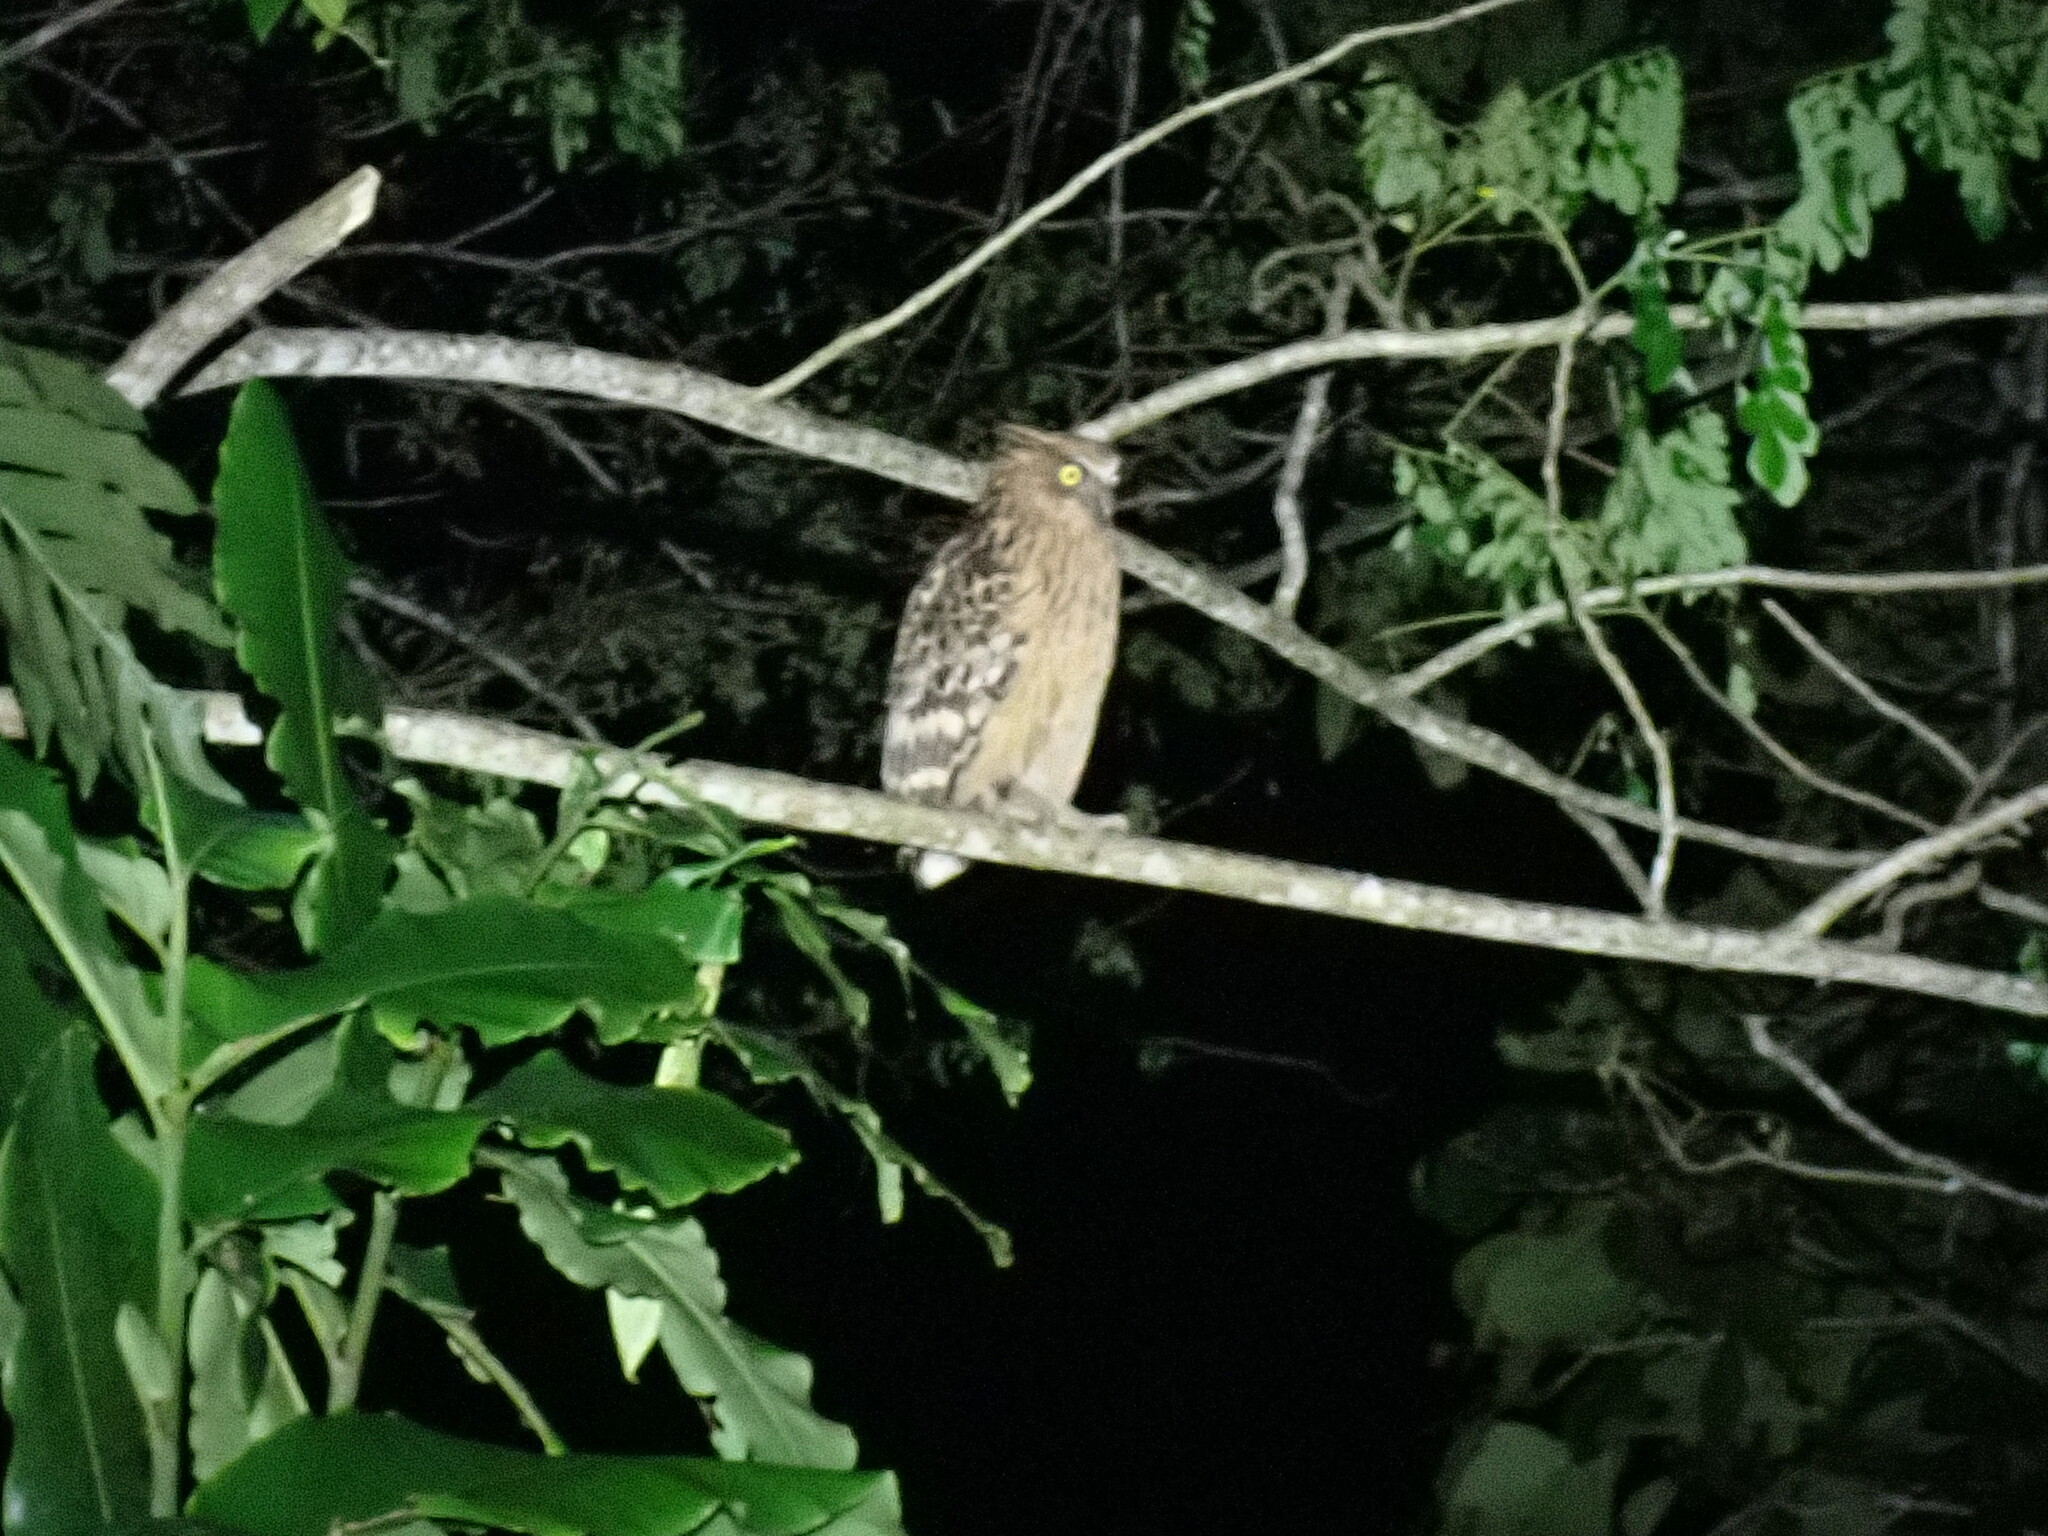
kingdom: Animalia
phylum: Chordata
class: Aves
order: Strigiformes
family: Strigidae
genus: Ketupa
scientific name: Ketupa ketupu
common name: Buffy fish-owl
